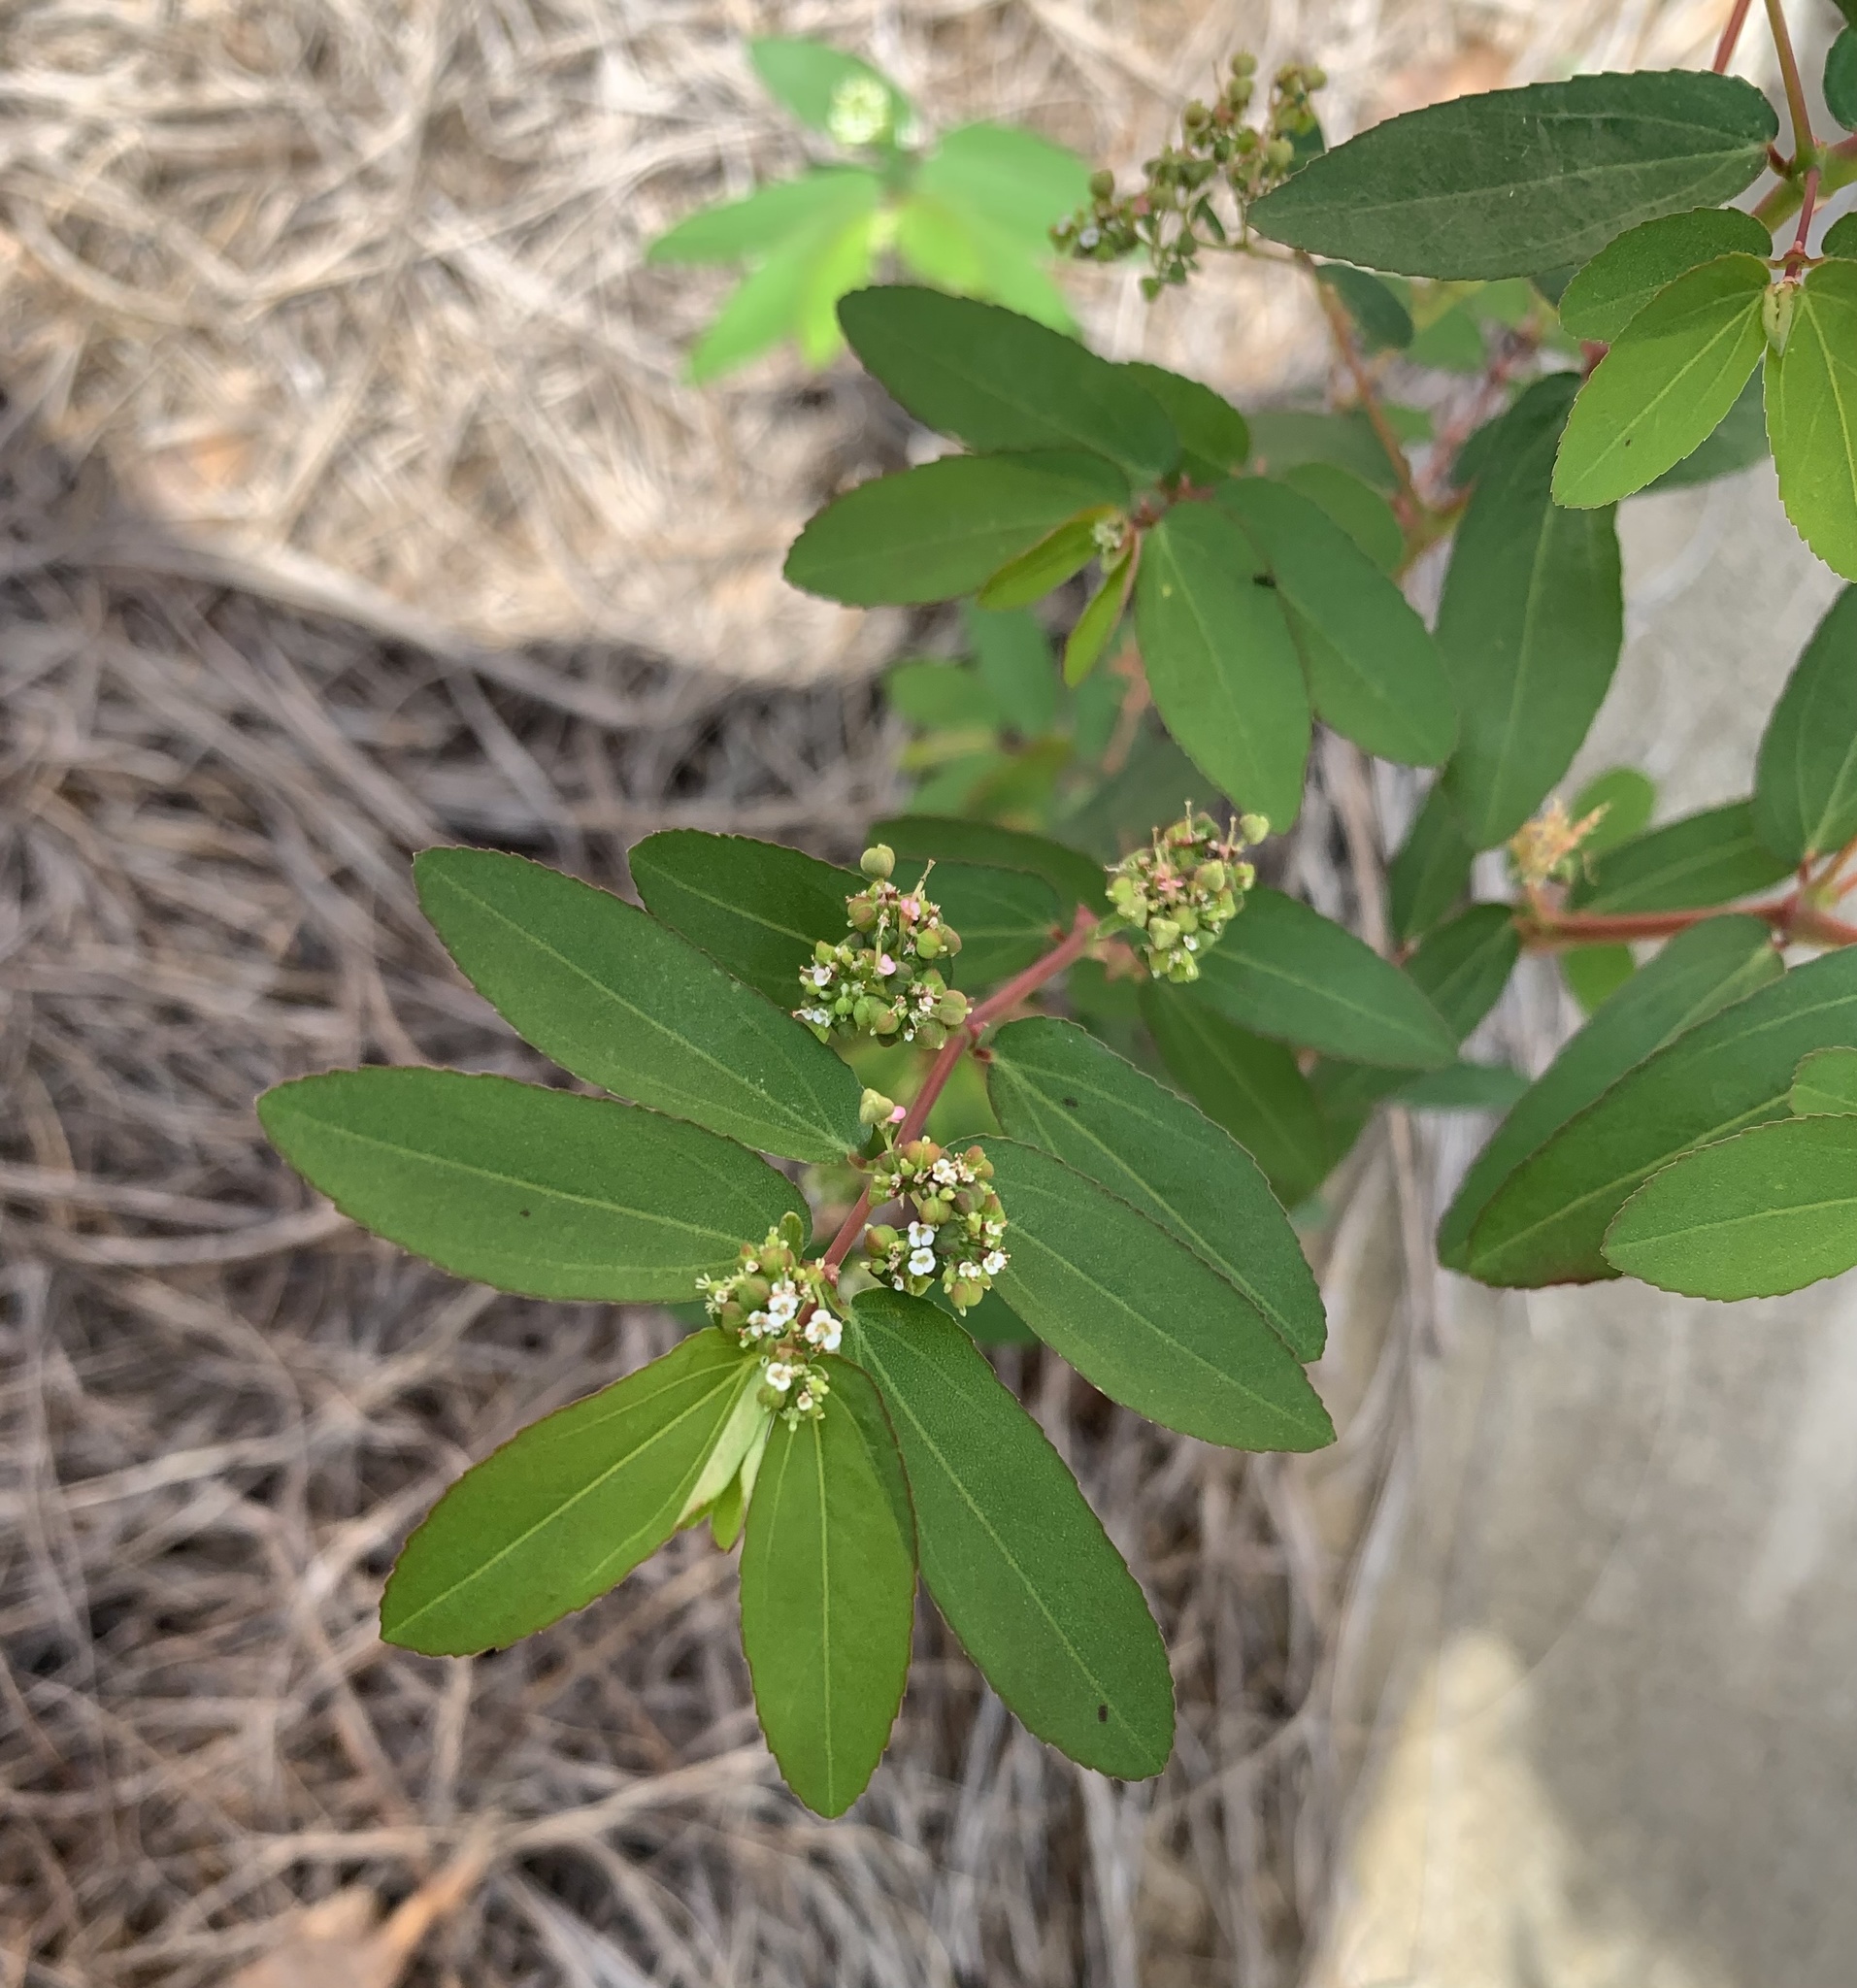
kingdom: Plantae
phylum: Tracheophyta
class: Magnoliopsida
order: Malpighiales
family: Euphorbiaceae
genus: Euphorbia
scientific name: Euphorbia hypericifolia
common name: Graceful sandmat
